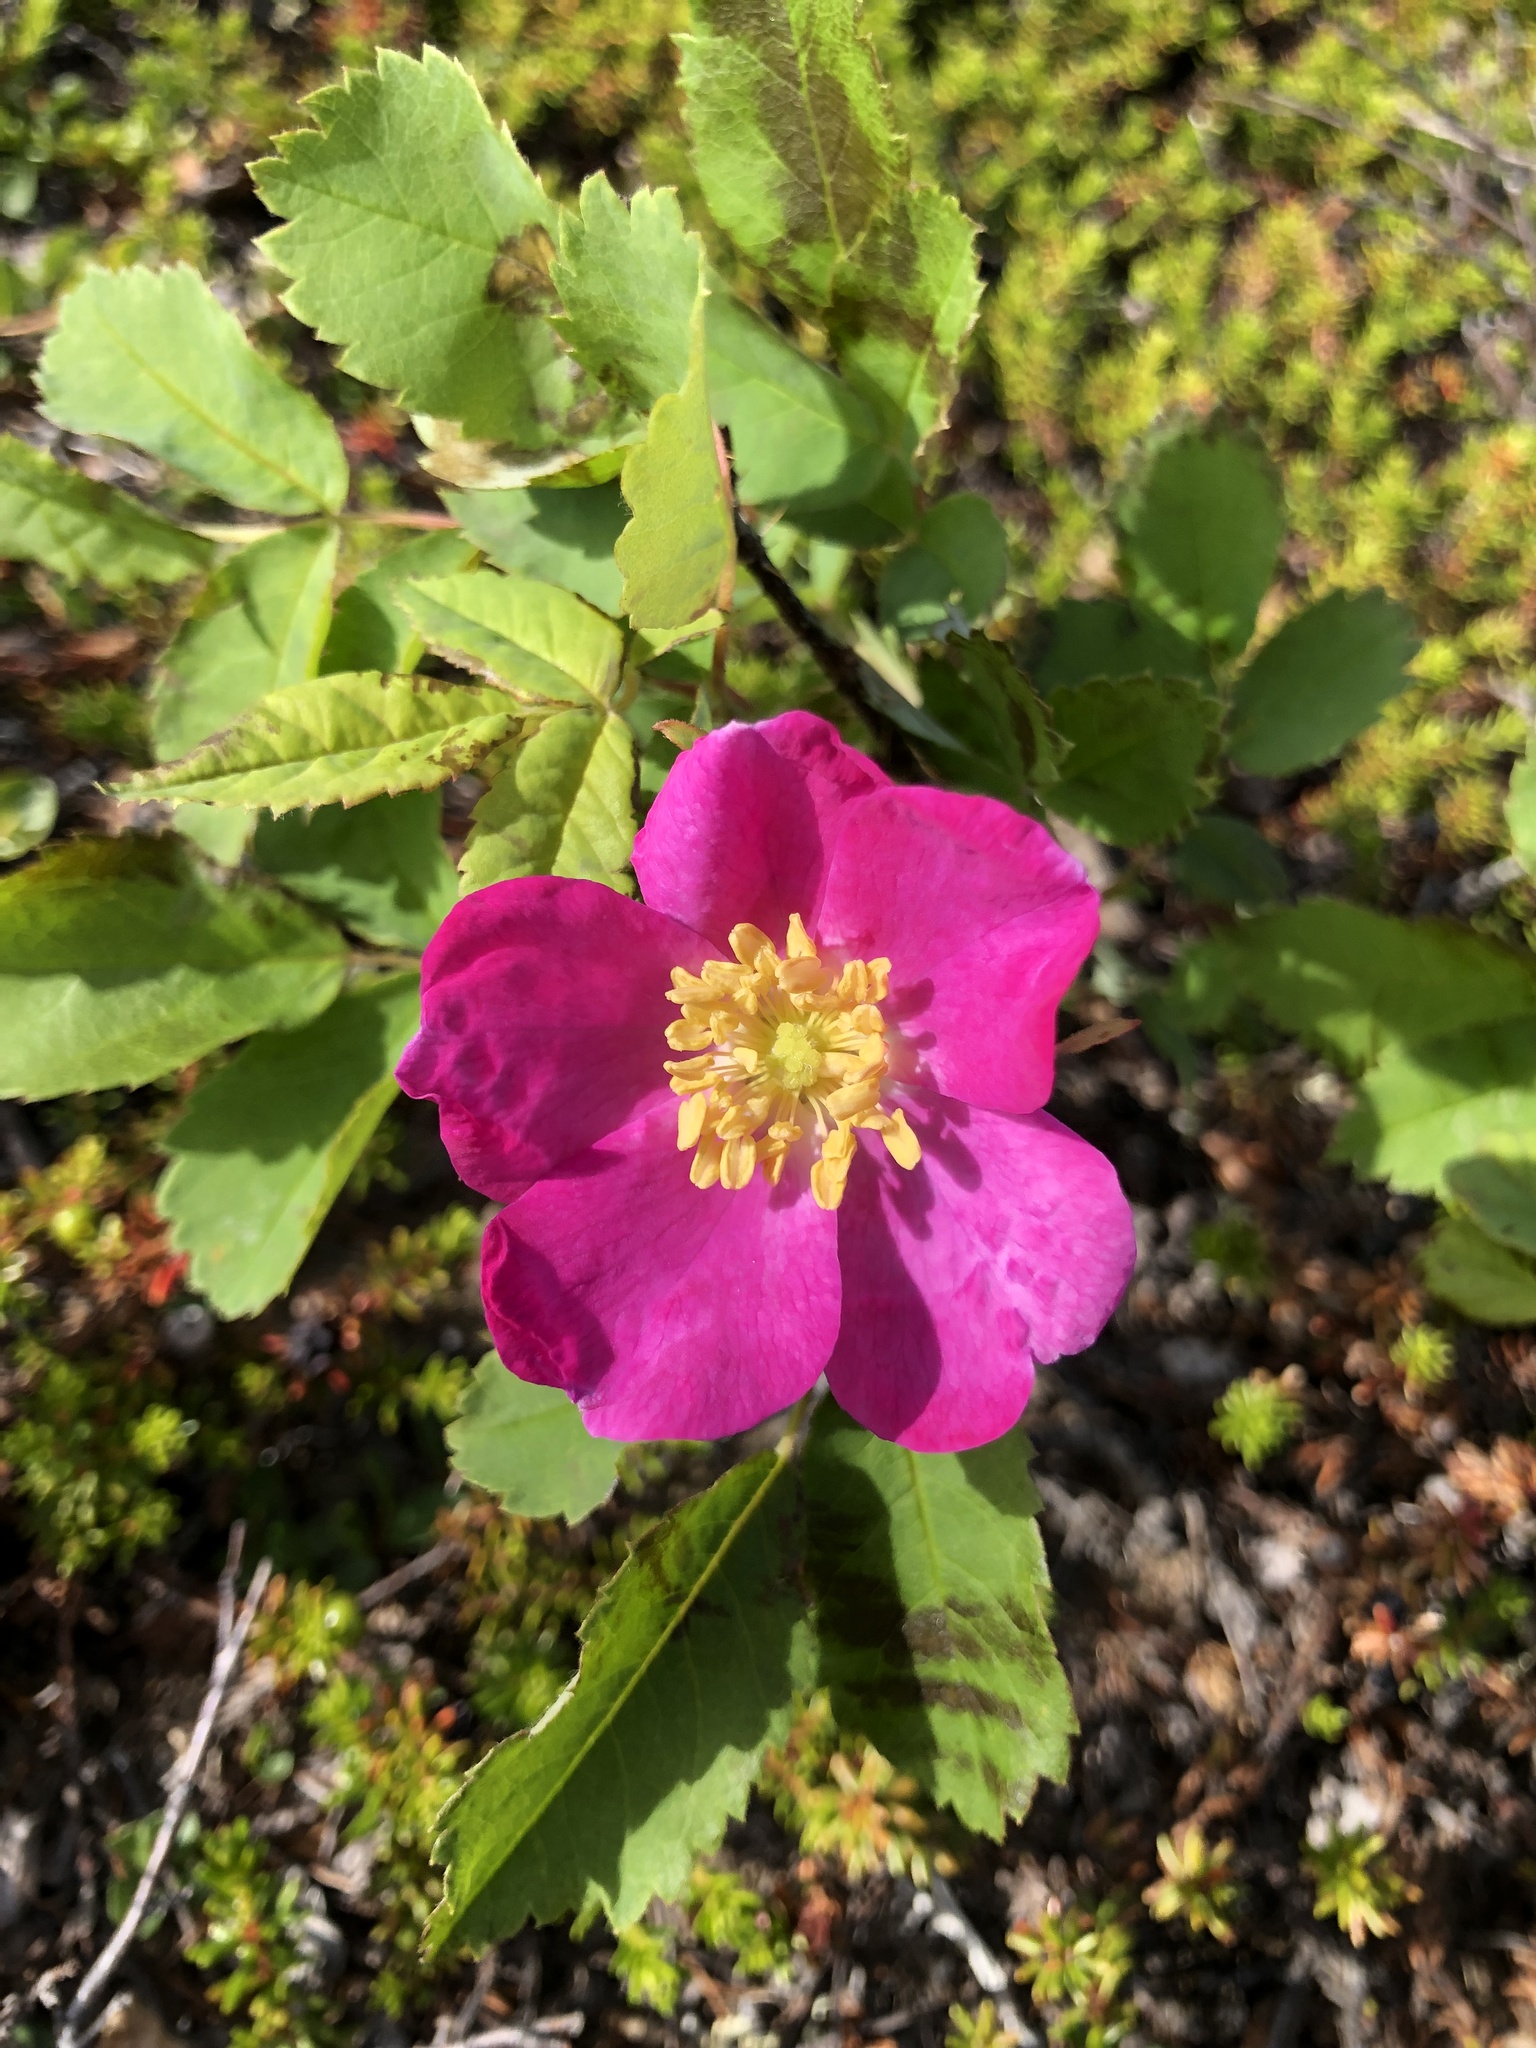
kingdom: Plantae
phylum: Tracheophyta
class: Magnoliopsida
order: Rosales
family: Rosaceae
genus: Rosa
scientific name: Rosa acicularis
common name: Prickly rose
